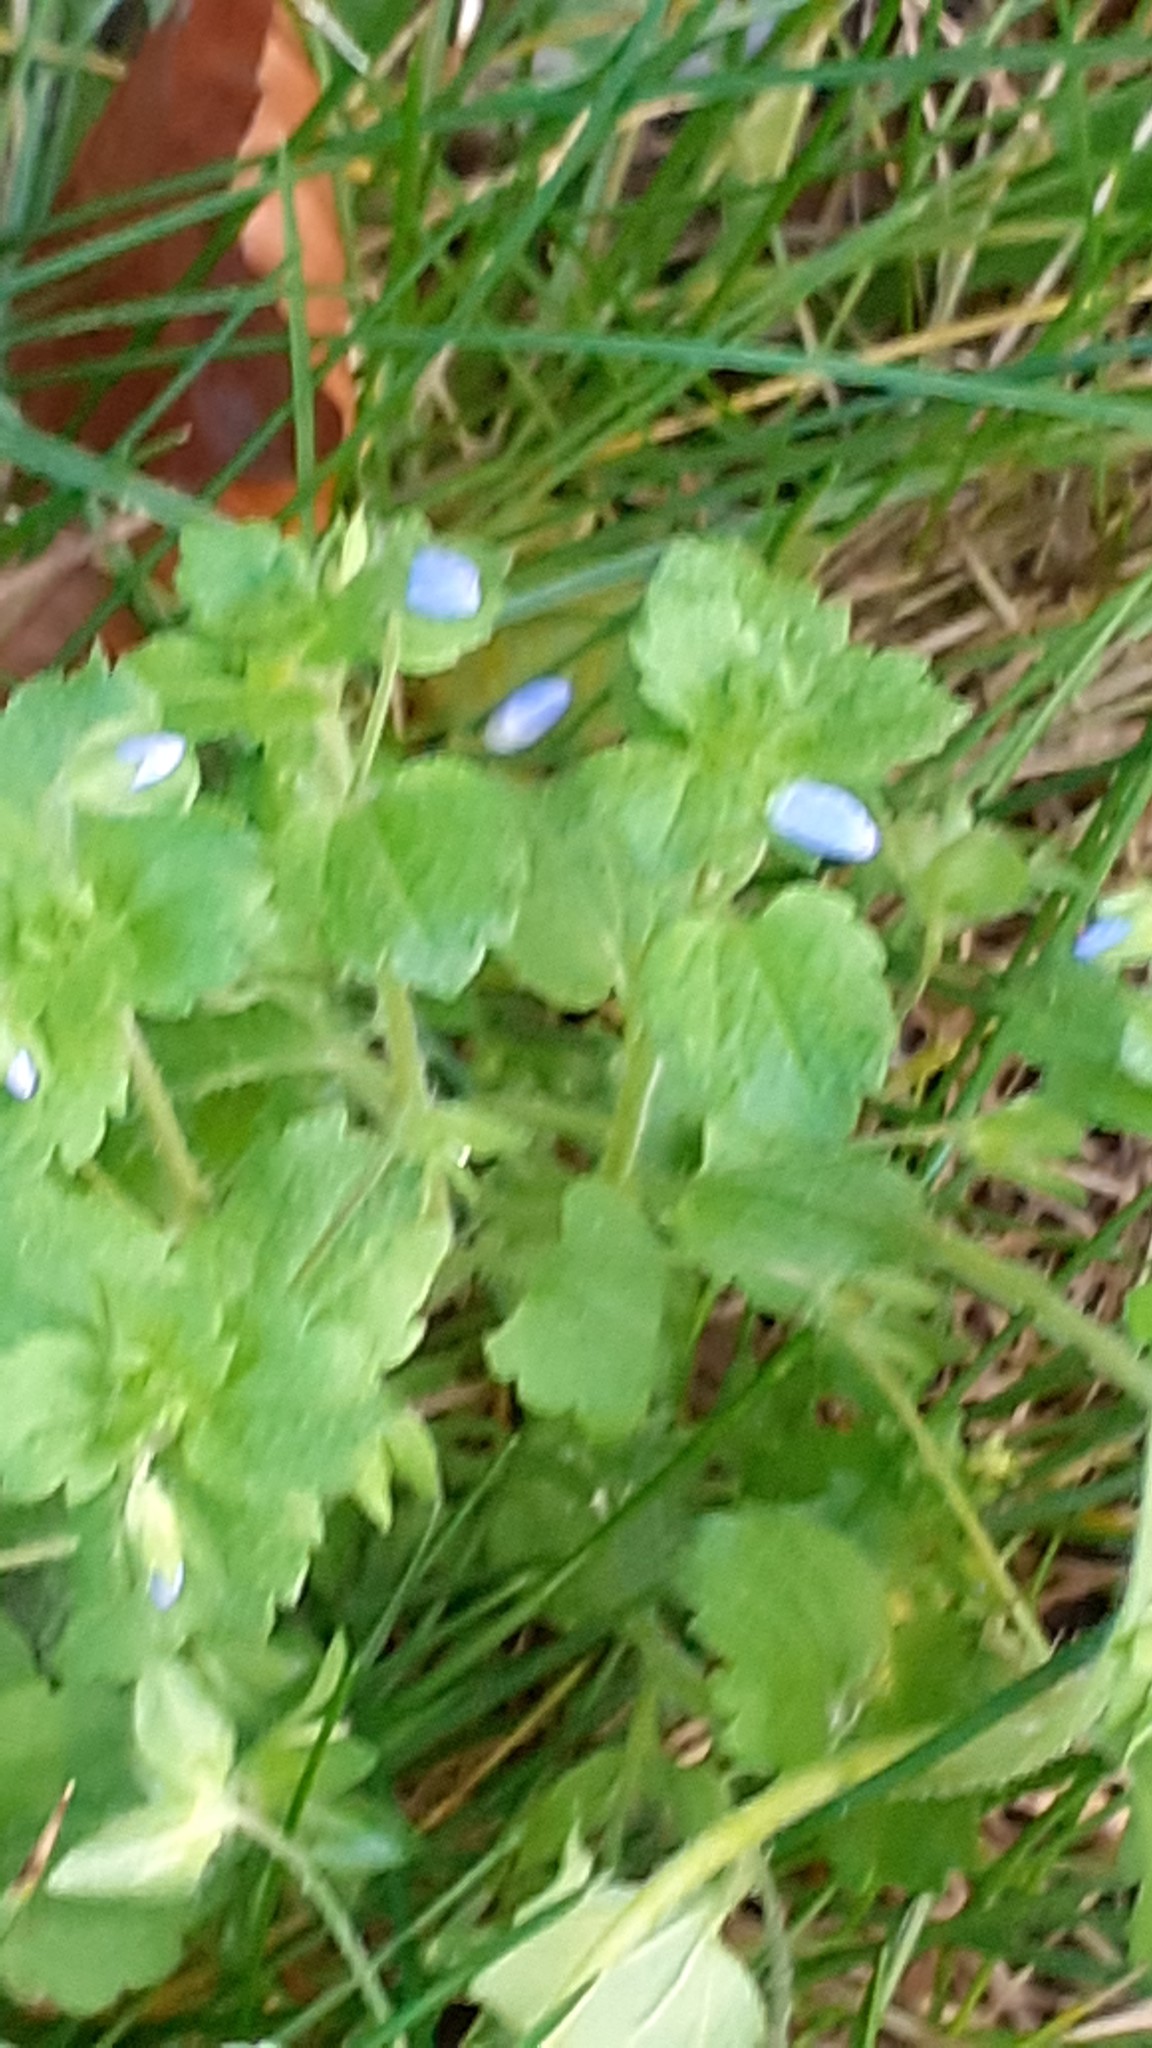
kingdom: Plantae
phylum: Tracheophyta
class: Magnoliopsida
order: Lamiales
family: Plantaginaceae
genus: Veronica
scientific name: Veronica persica
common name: Common field-speedwell
